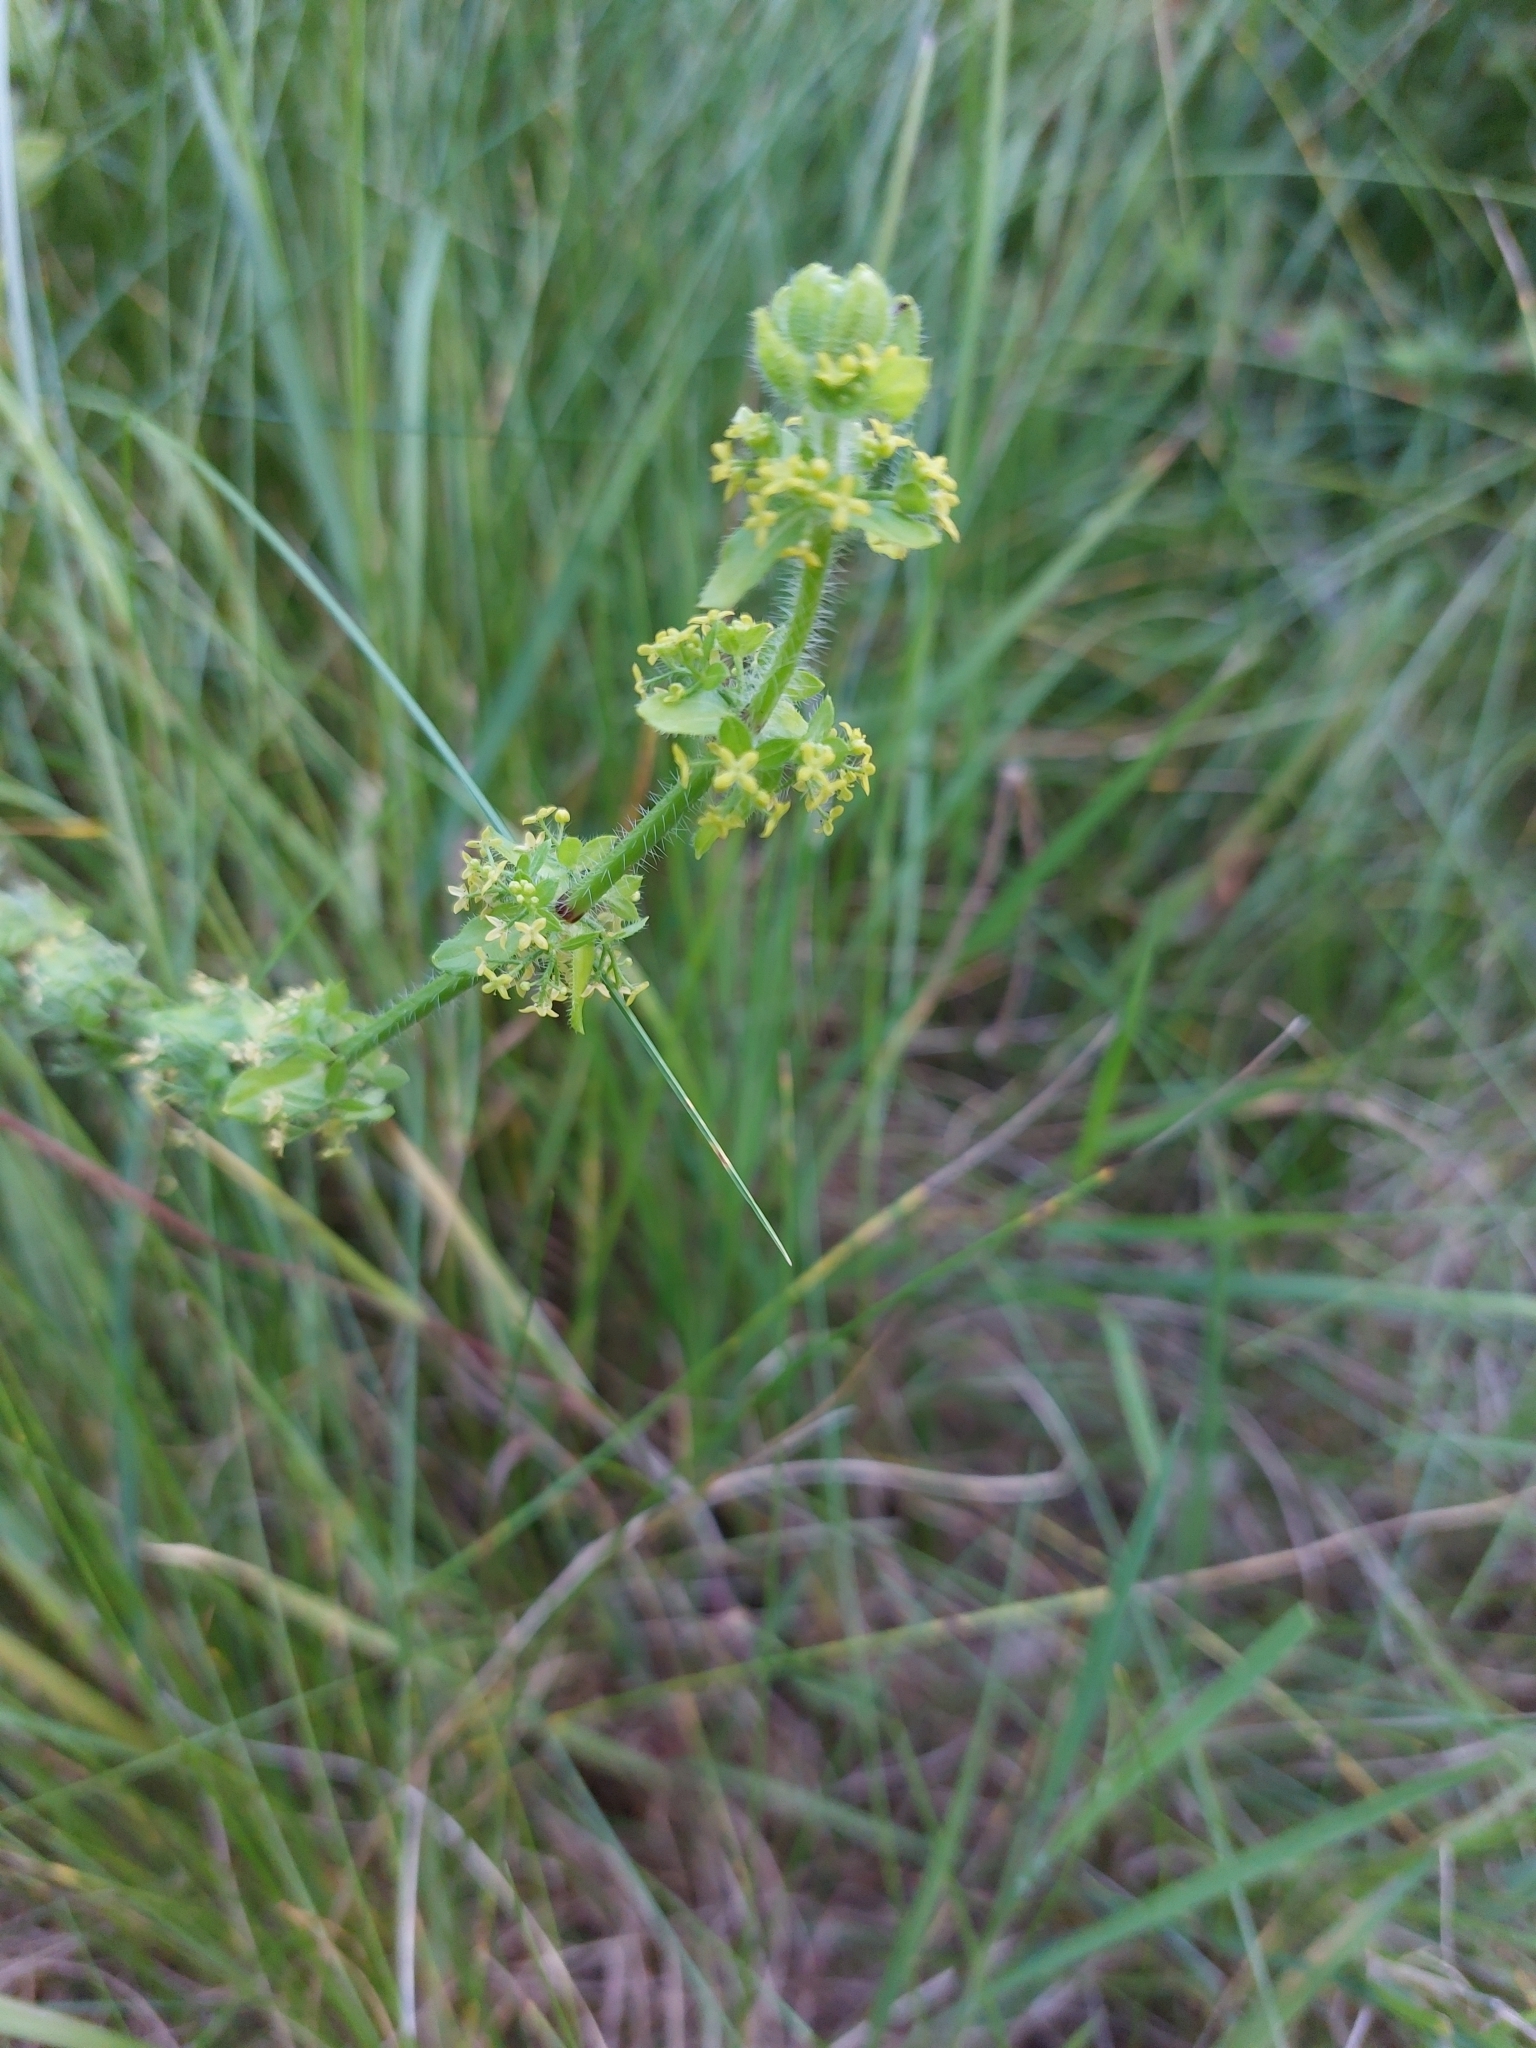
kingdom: Plantae
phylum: Tracheophyta
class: Magnoliopsida
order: Gentianales
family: Rubiaceae
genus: Cruciata
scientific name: Cruciata laevipes
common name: Crosswort
